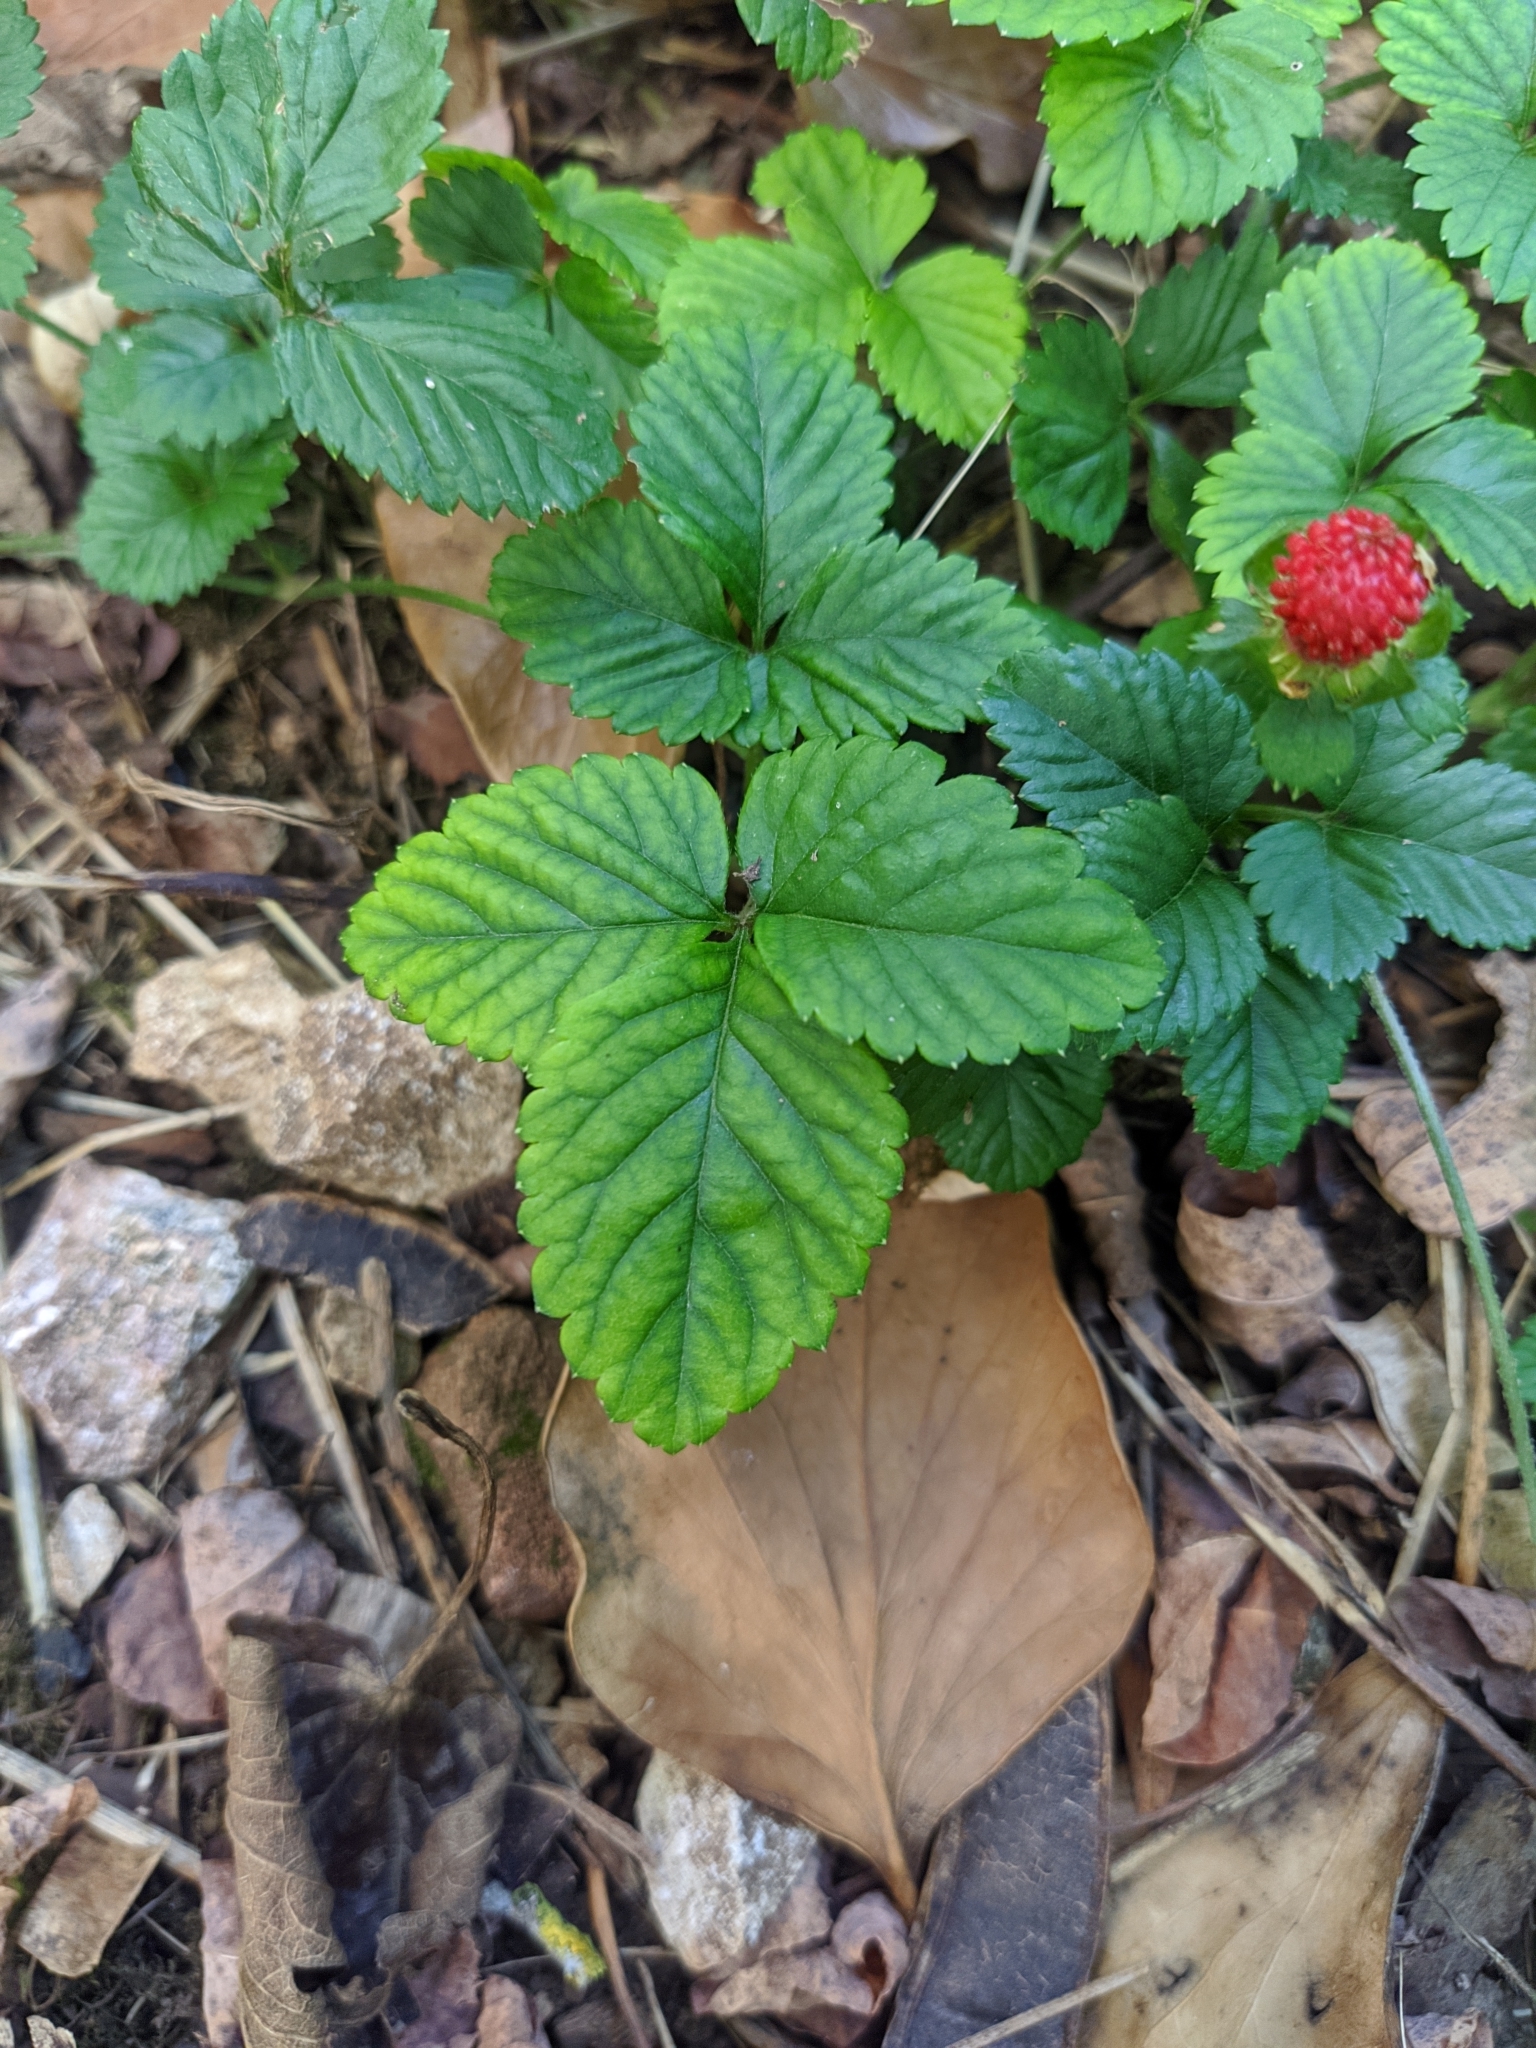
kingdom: Plantae
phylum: Tracheophyta
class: Magnoliopsida
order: Rosales
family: Rosaceae
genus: Potentilla
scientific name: Potentilla indica
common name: Yellow-flowered strawberry
